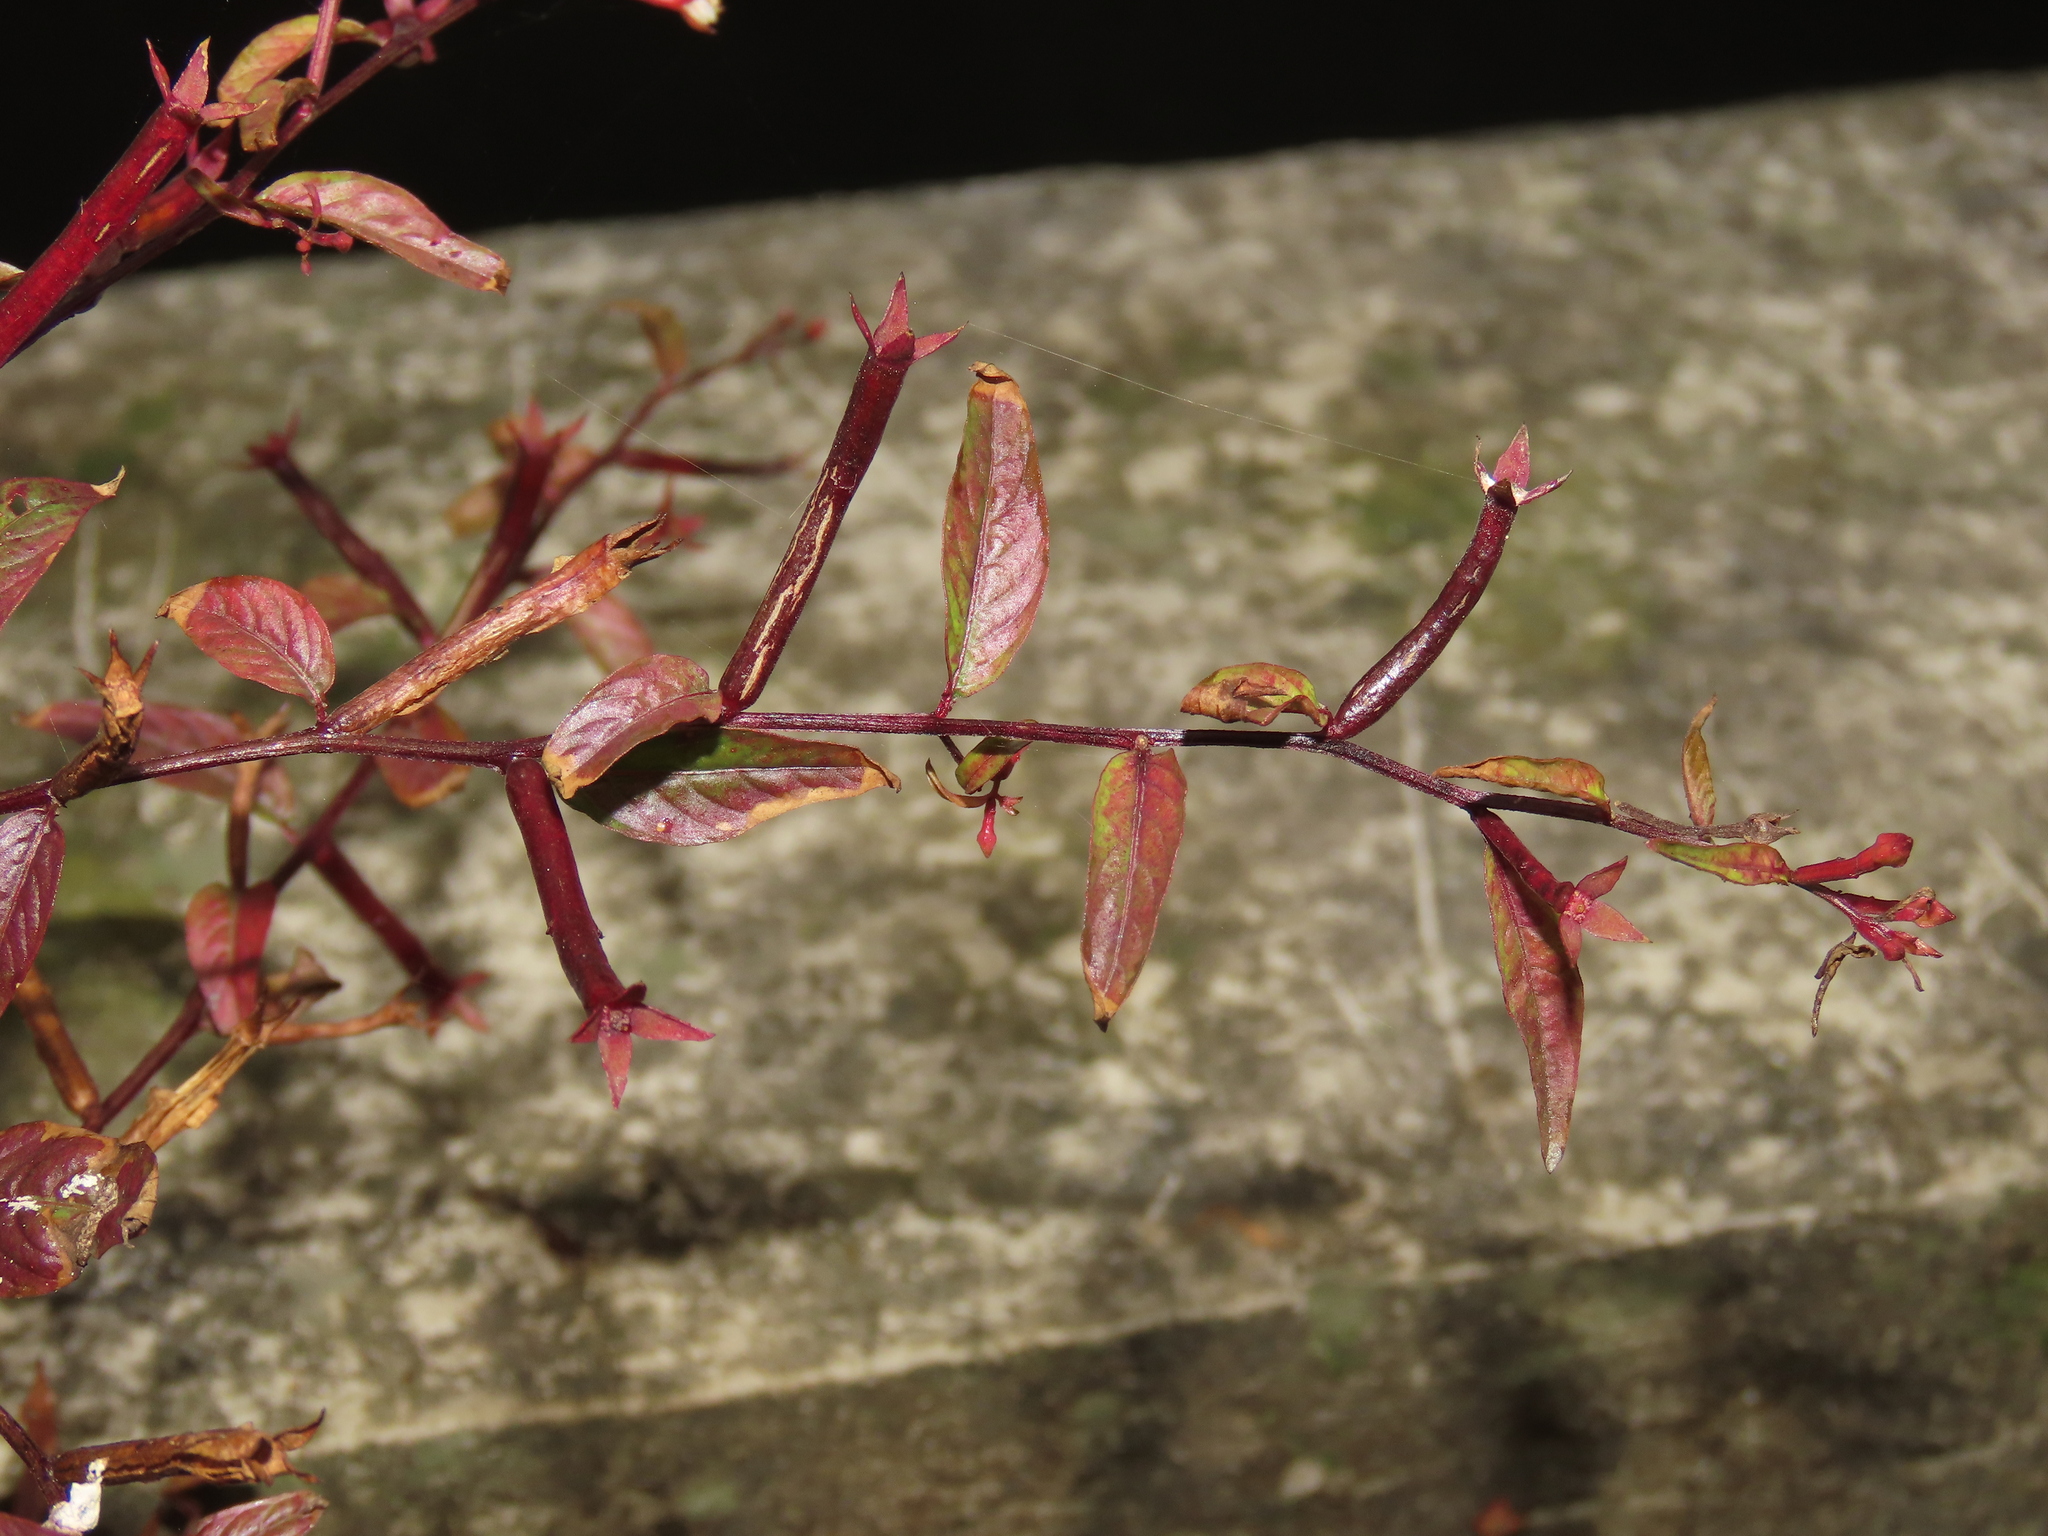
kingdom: Plantae
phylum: Tracheophyta
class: Magnoliopsida
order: Myrtales
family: Onagraceae
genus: Ludwigia
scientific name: Ludwigia hyssopifolia
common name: Linear leaf water primrose
